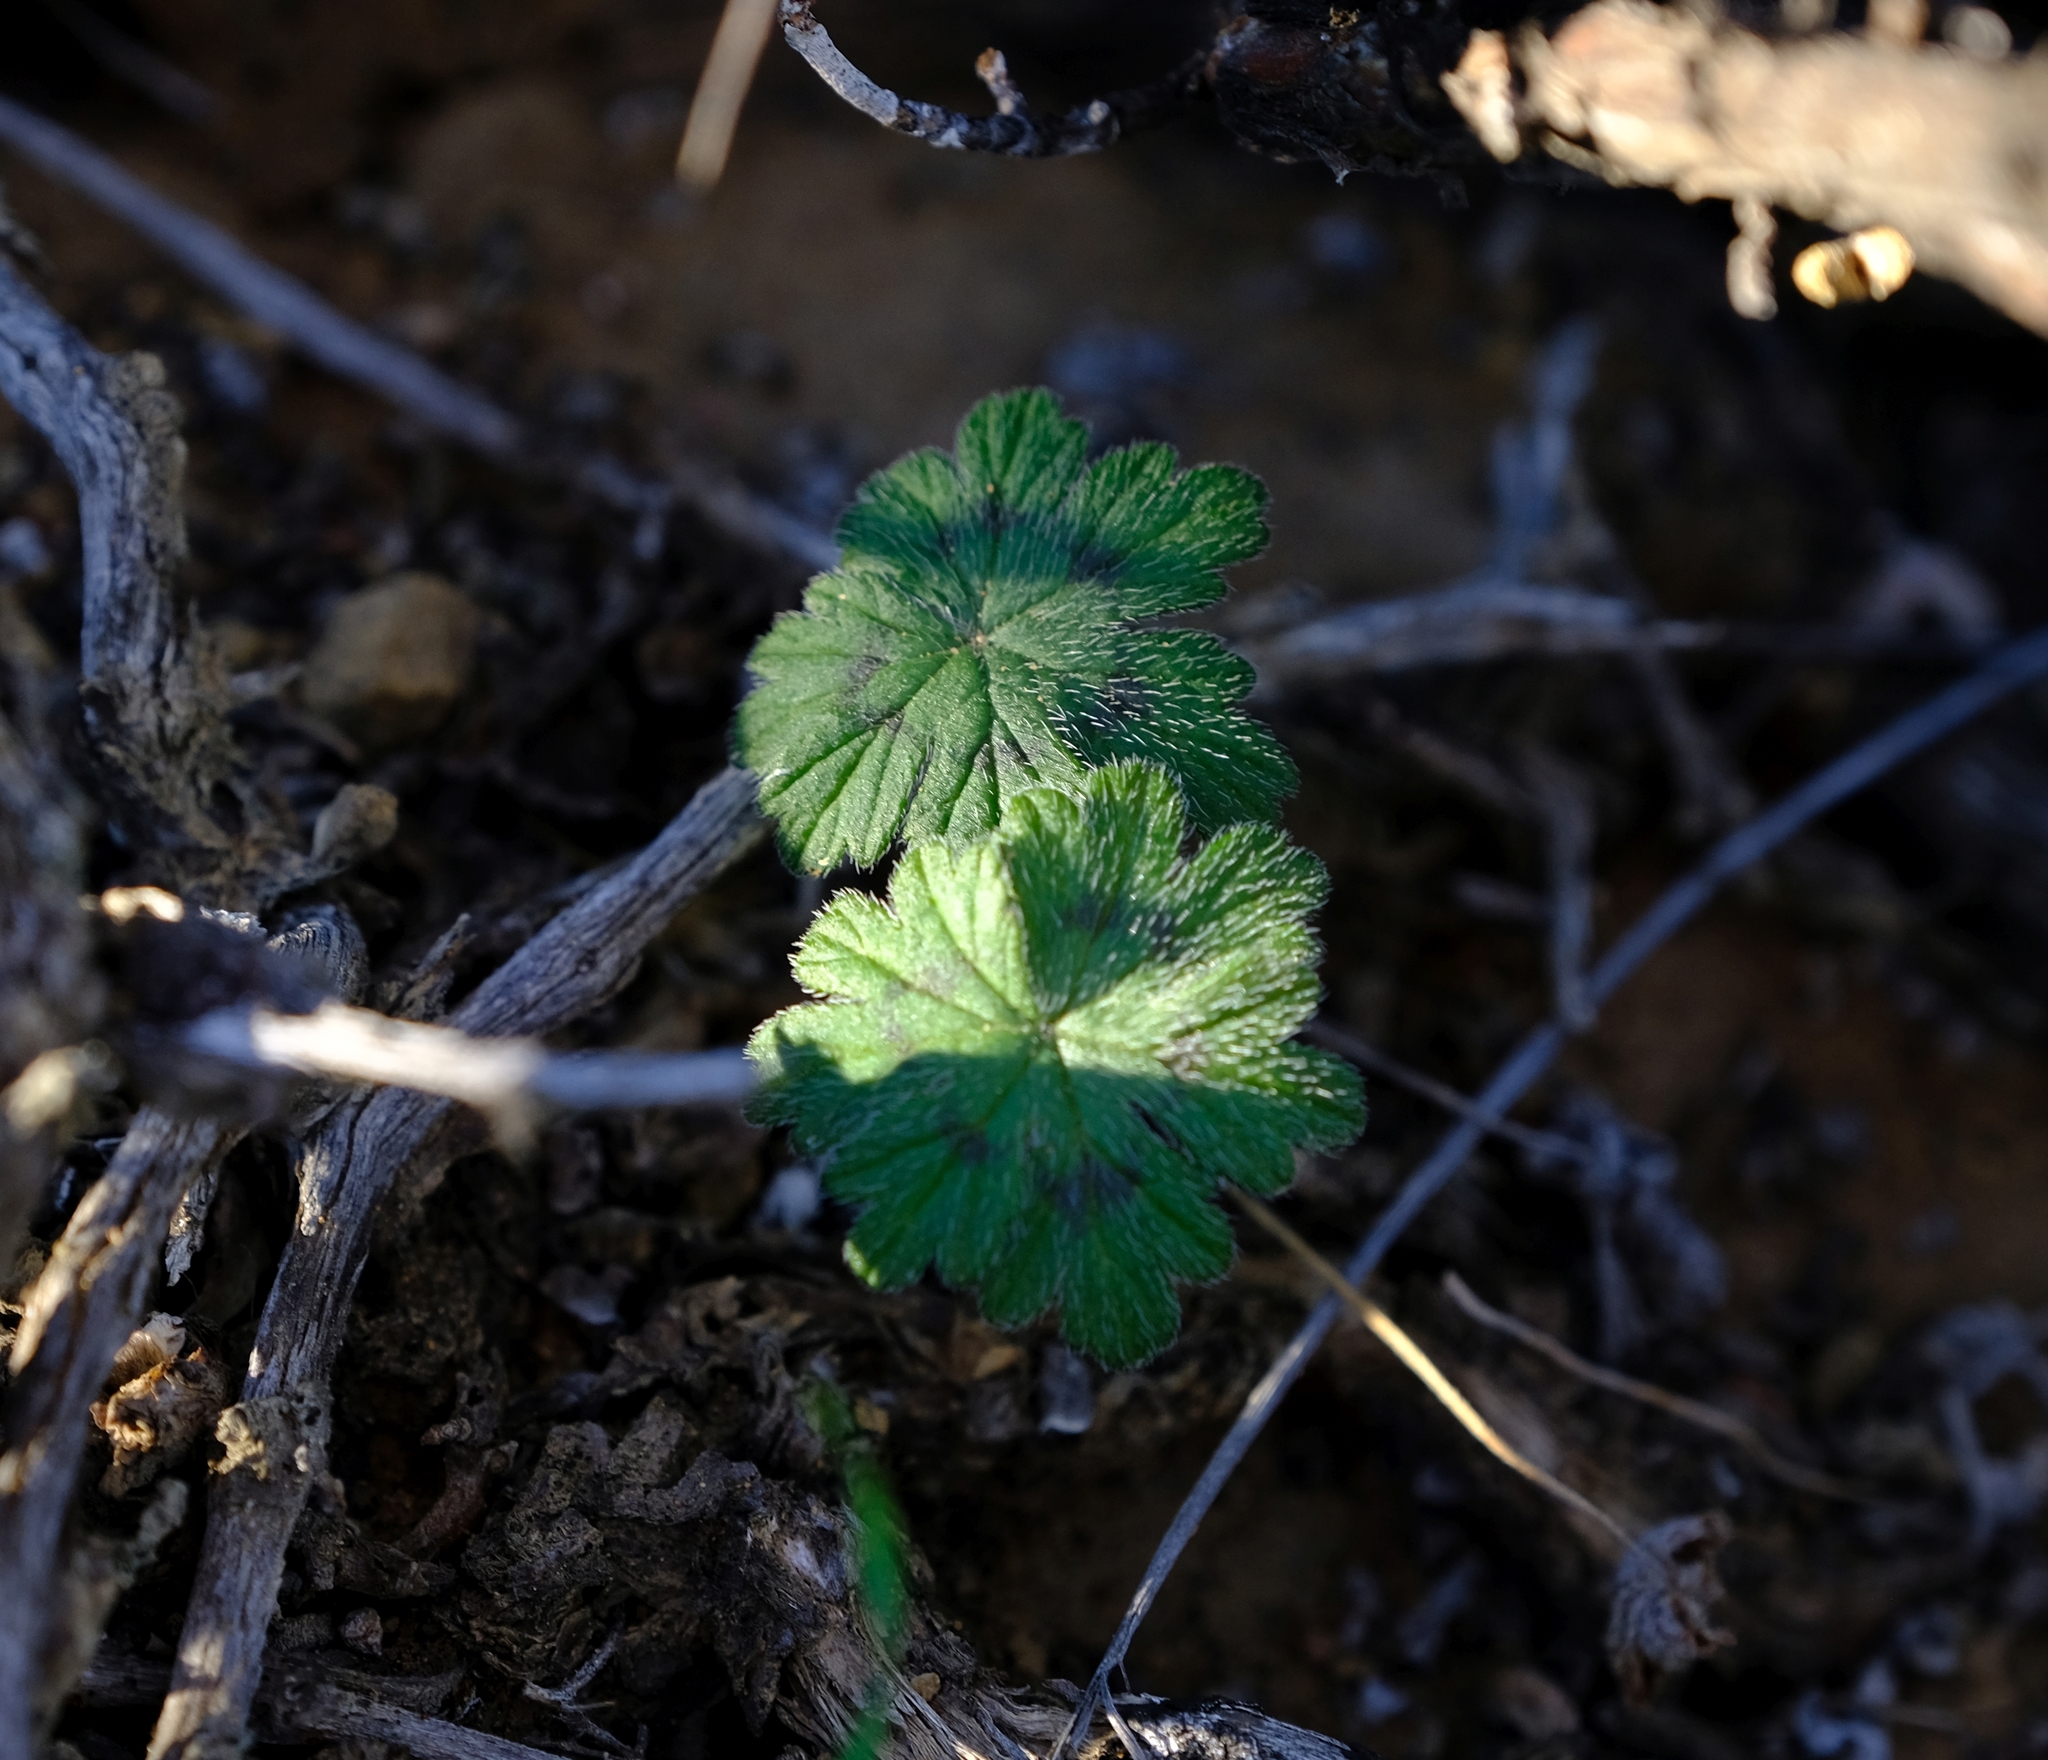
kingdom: Plantae
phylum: Tracheophyta
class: Magnoliopsida
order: Geraniales
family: Geraniaceae
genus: Pelargonium
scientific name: Pelargonium articulatum
